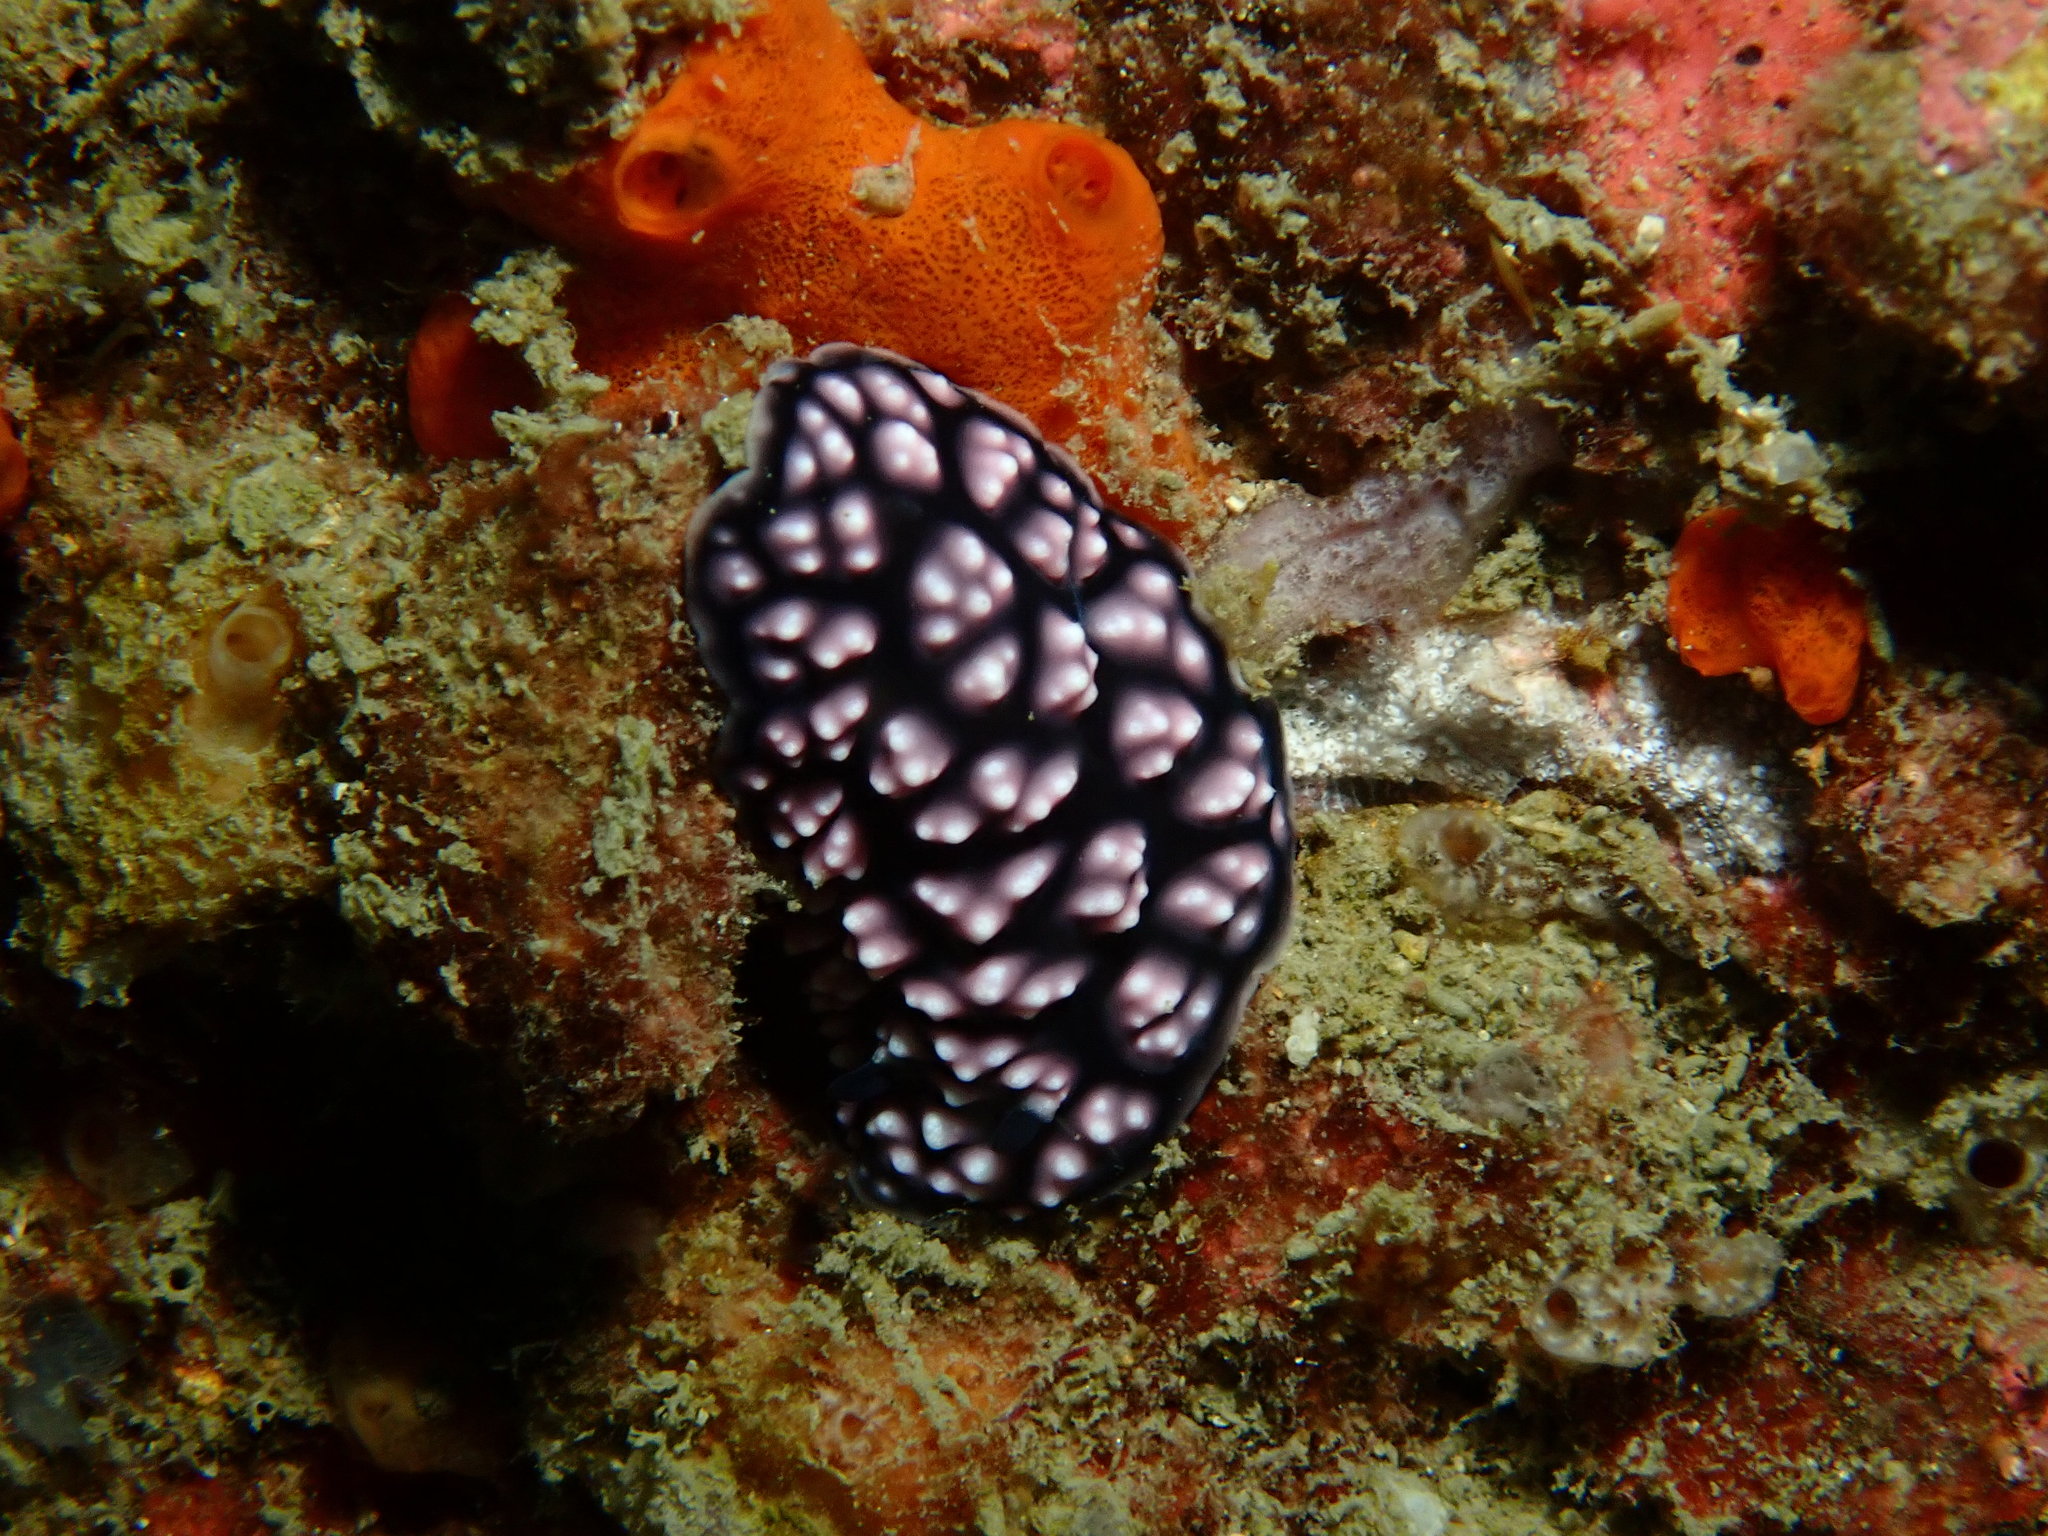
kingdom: Animalia
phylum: Mollusca
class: Gastropoda
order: Nudibranchia
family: Phyllidiidae
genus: Phyllidiella
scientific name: Phyllidiella pustulosa
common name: Pustular phyllidia
